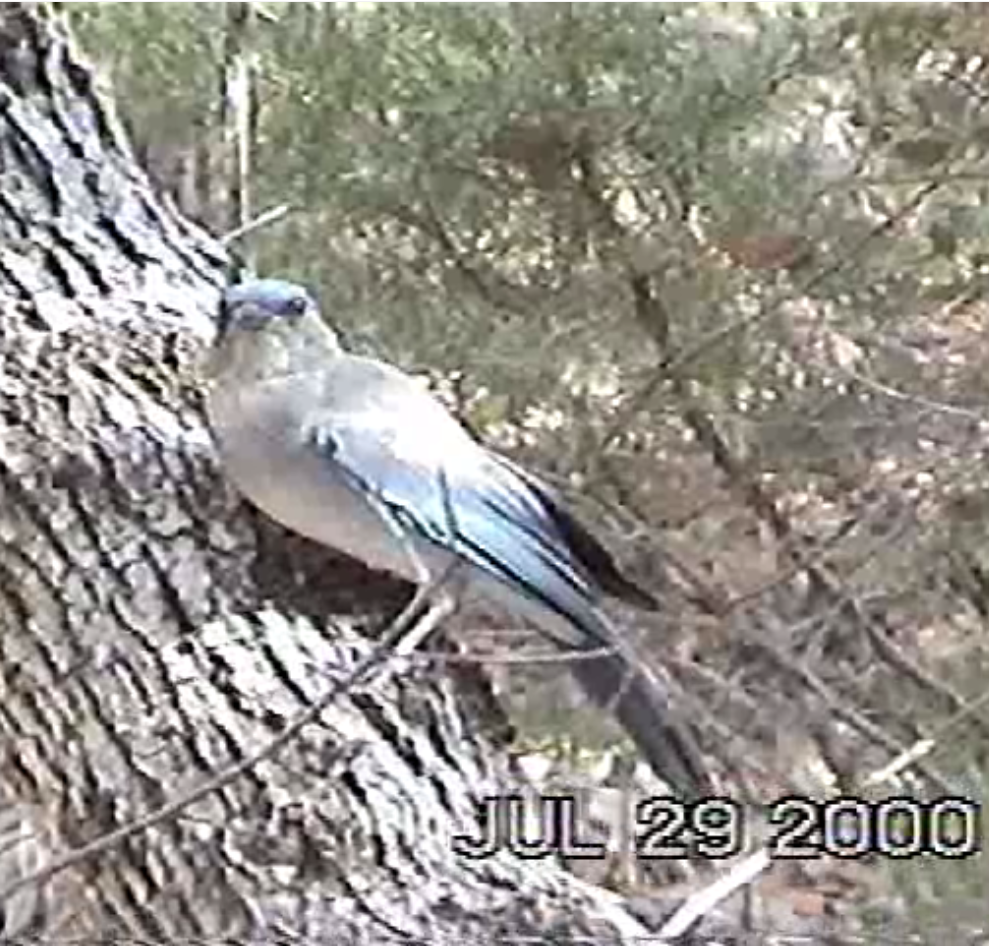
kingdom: Animalia
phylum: Chordata
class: Aves
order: Passeriformes
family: Corvidae
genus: Aphelocoma
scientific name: Aphelocoma wollweberi
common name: Mexican jay
